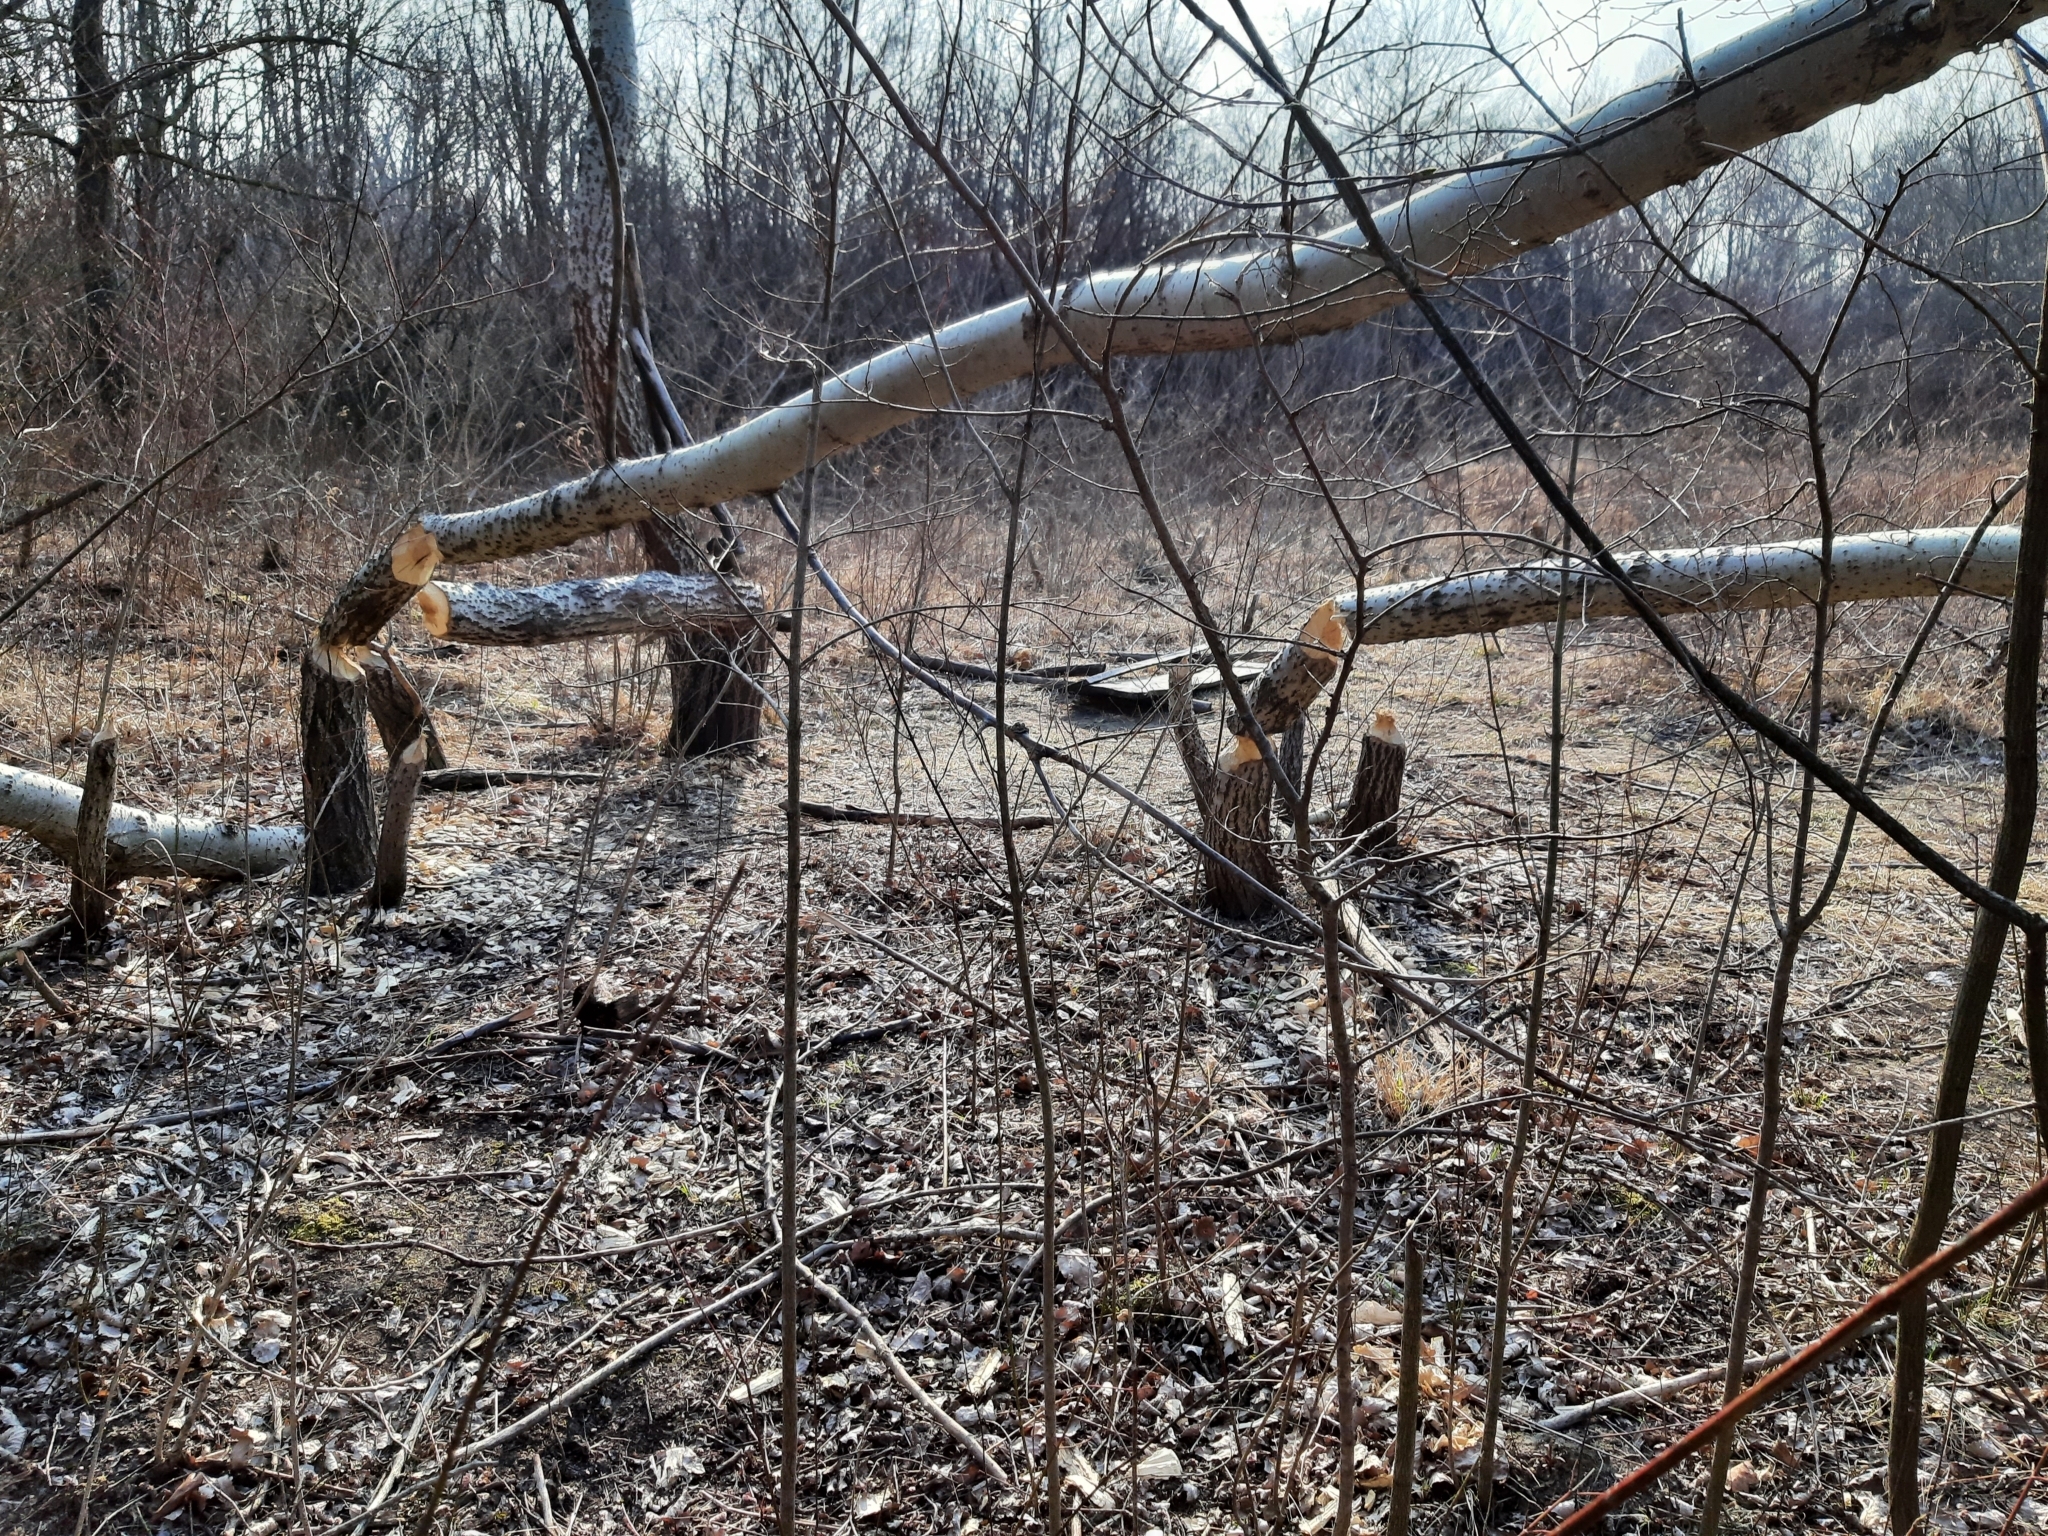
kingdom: Animalia
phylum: Chordata
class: Mammalia
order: Rodentia
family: Castoridae
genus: Castor
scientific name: Castor fiber
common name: Eurasian beaver
